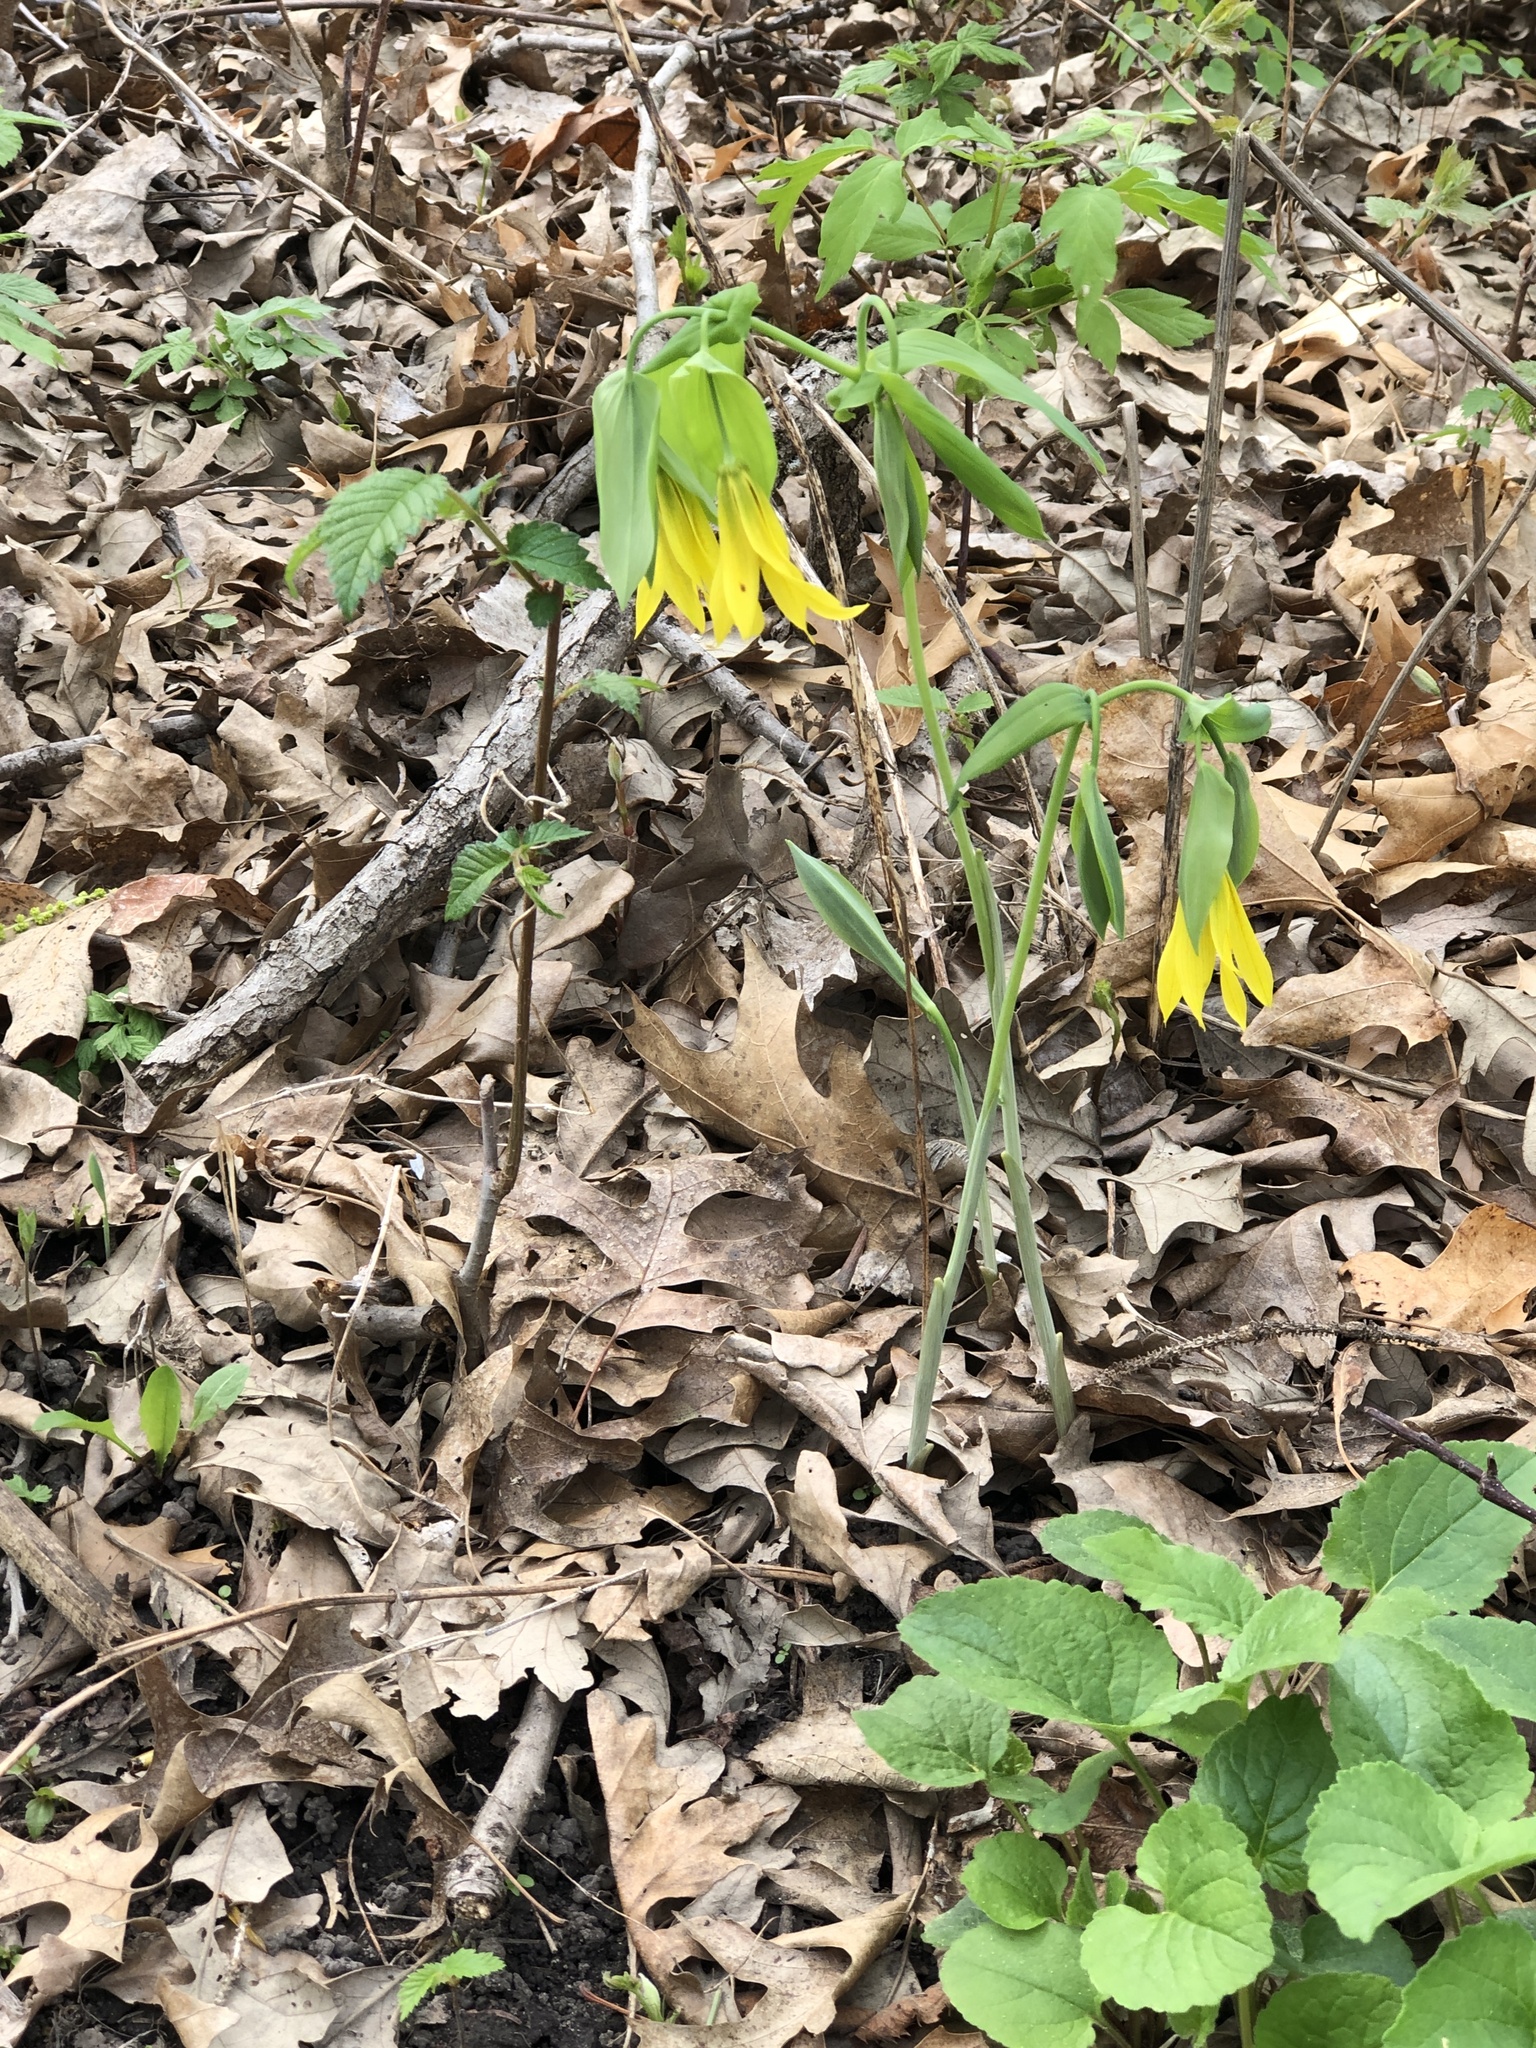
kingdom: Plantae
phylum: Tracheophyta
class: Liliopsida
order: Liliales
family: Colchicaceae
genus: Uvularia
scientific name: Uvularia grandiflora
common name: Bellwort
